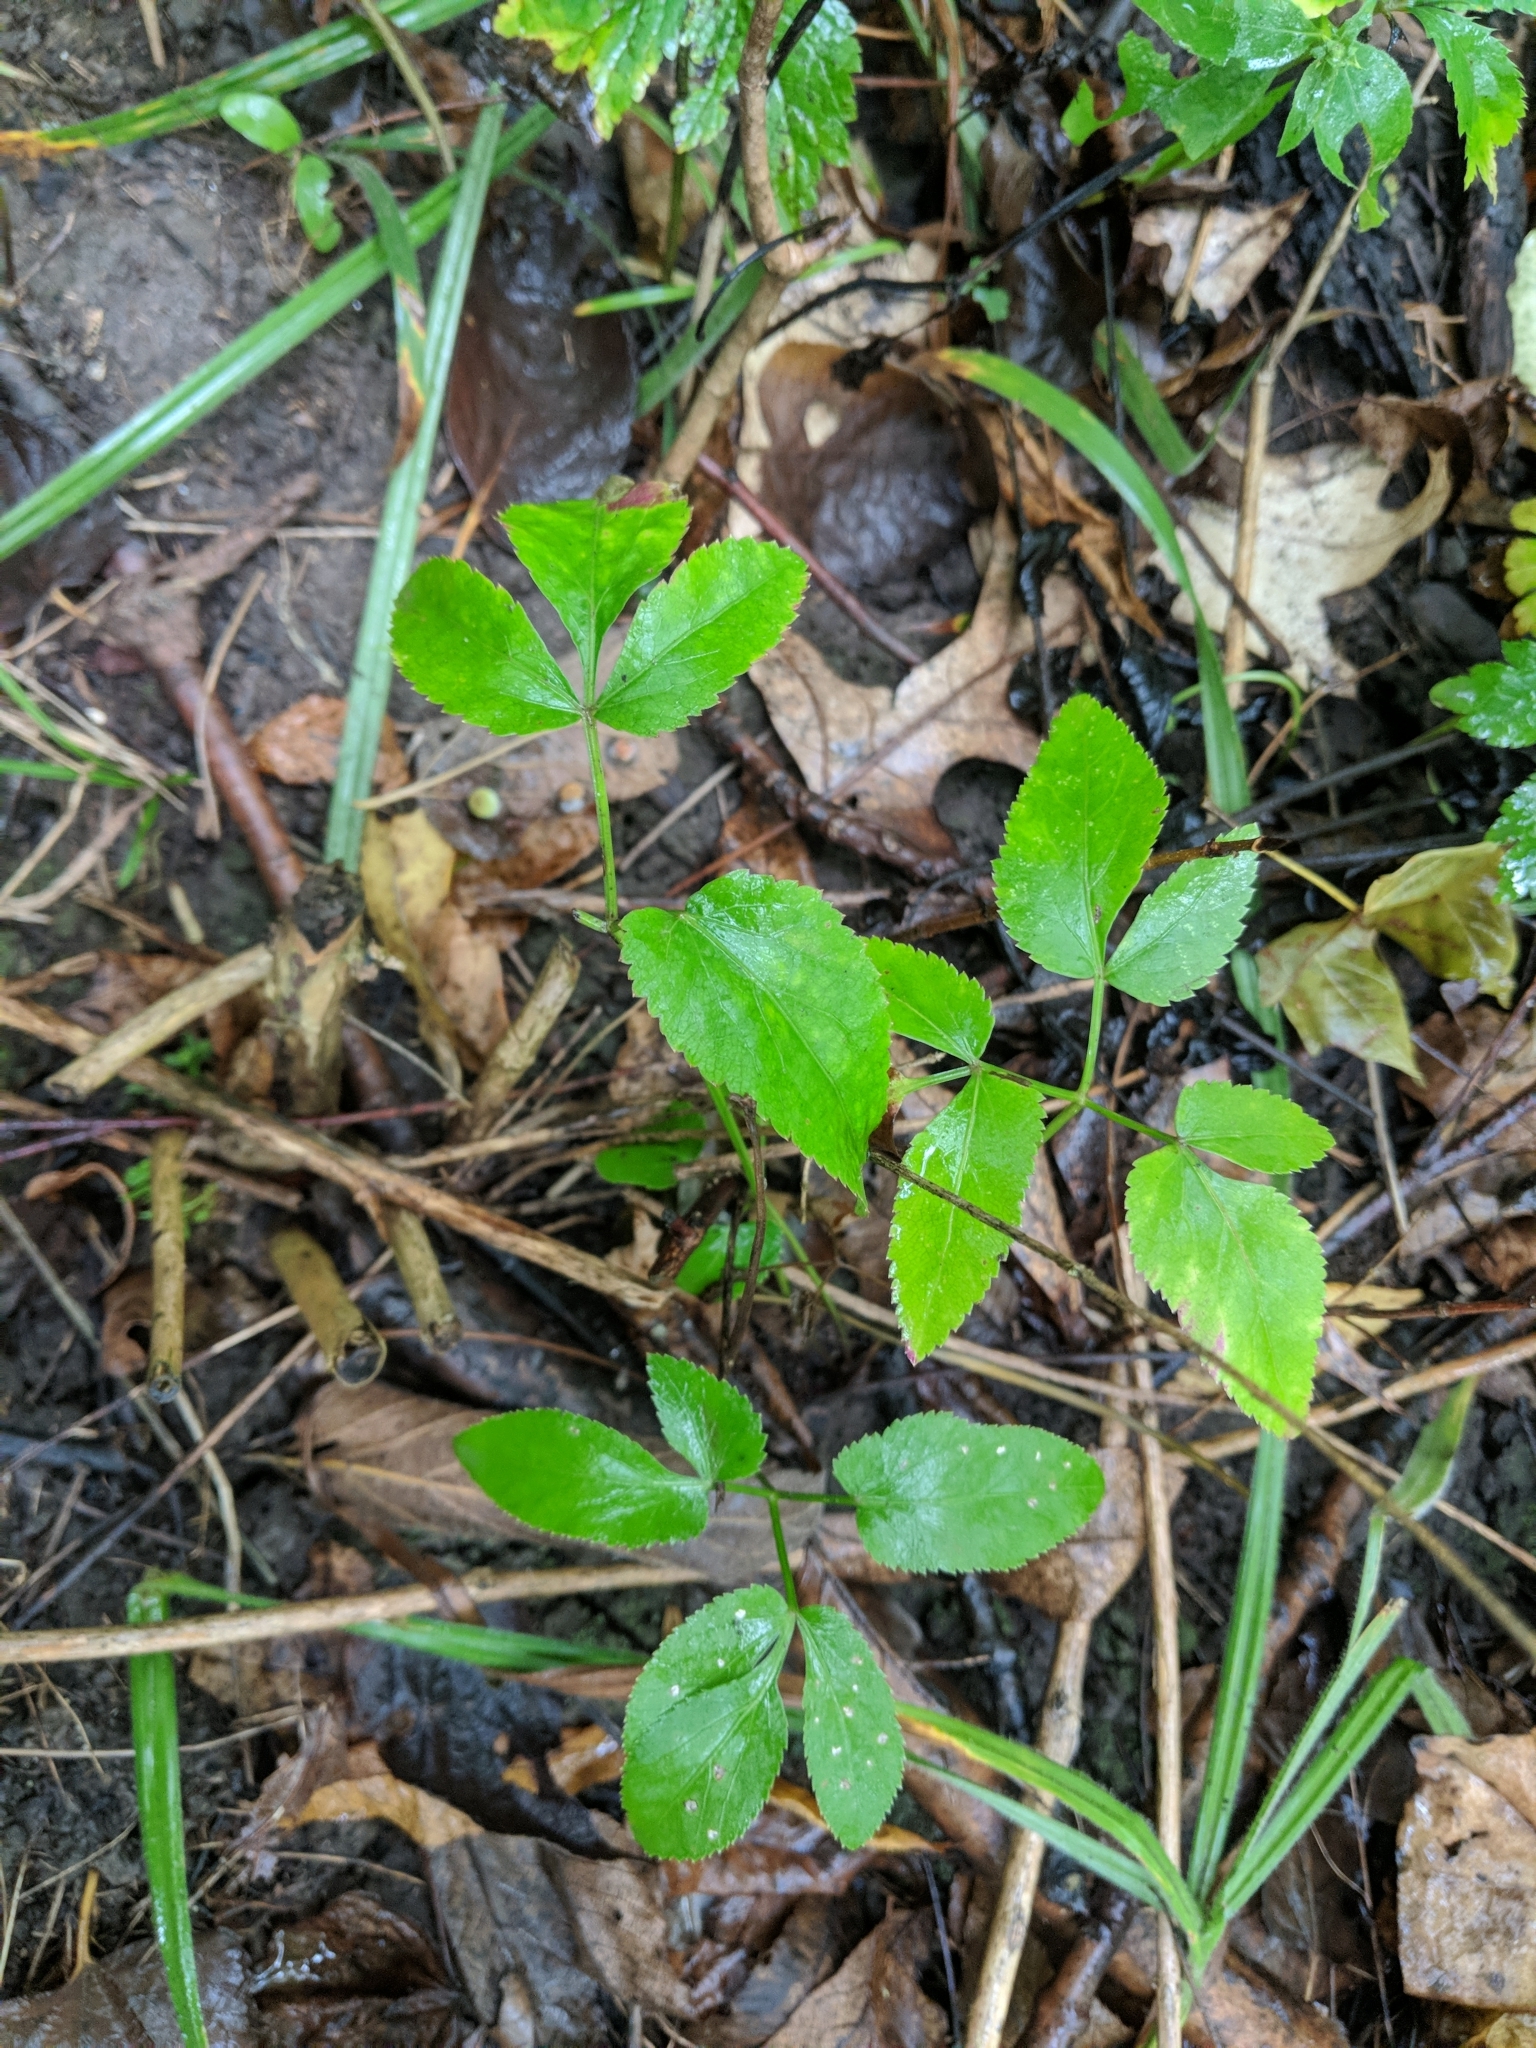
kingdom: Plantae
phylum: Tracheophyta
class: Magnoliopsida
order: Apiales
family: Apiaceae
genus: Zizia
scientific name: Zizia aurea
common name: Golden alexanders
